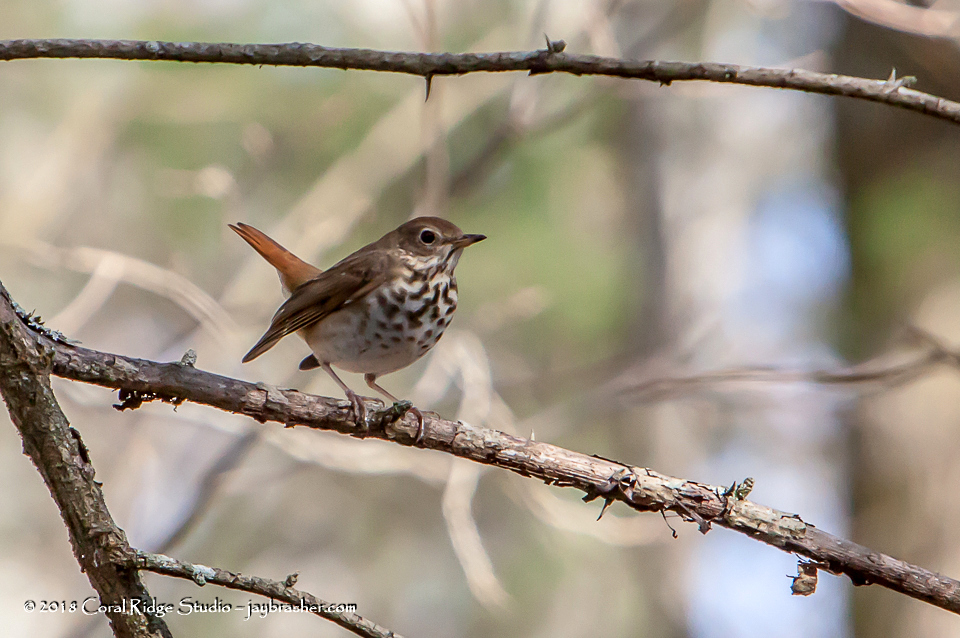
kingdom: Animalia
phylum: Chordata
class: Aves
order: Passeriformes
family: Turdidae
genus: Catharus
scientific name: Catharus guttatus
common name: Hermit thrush
